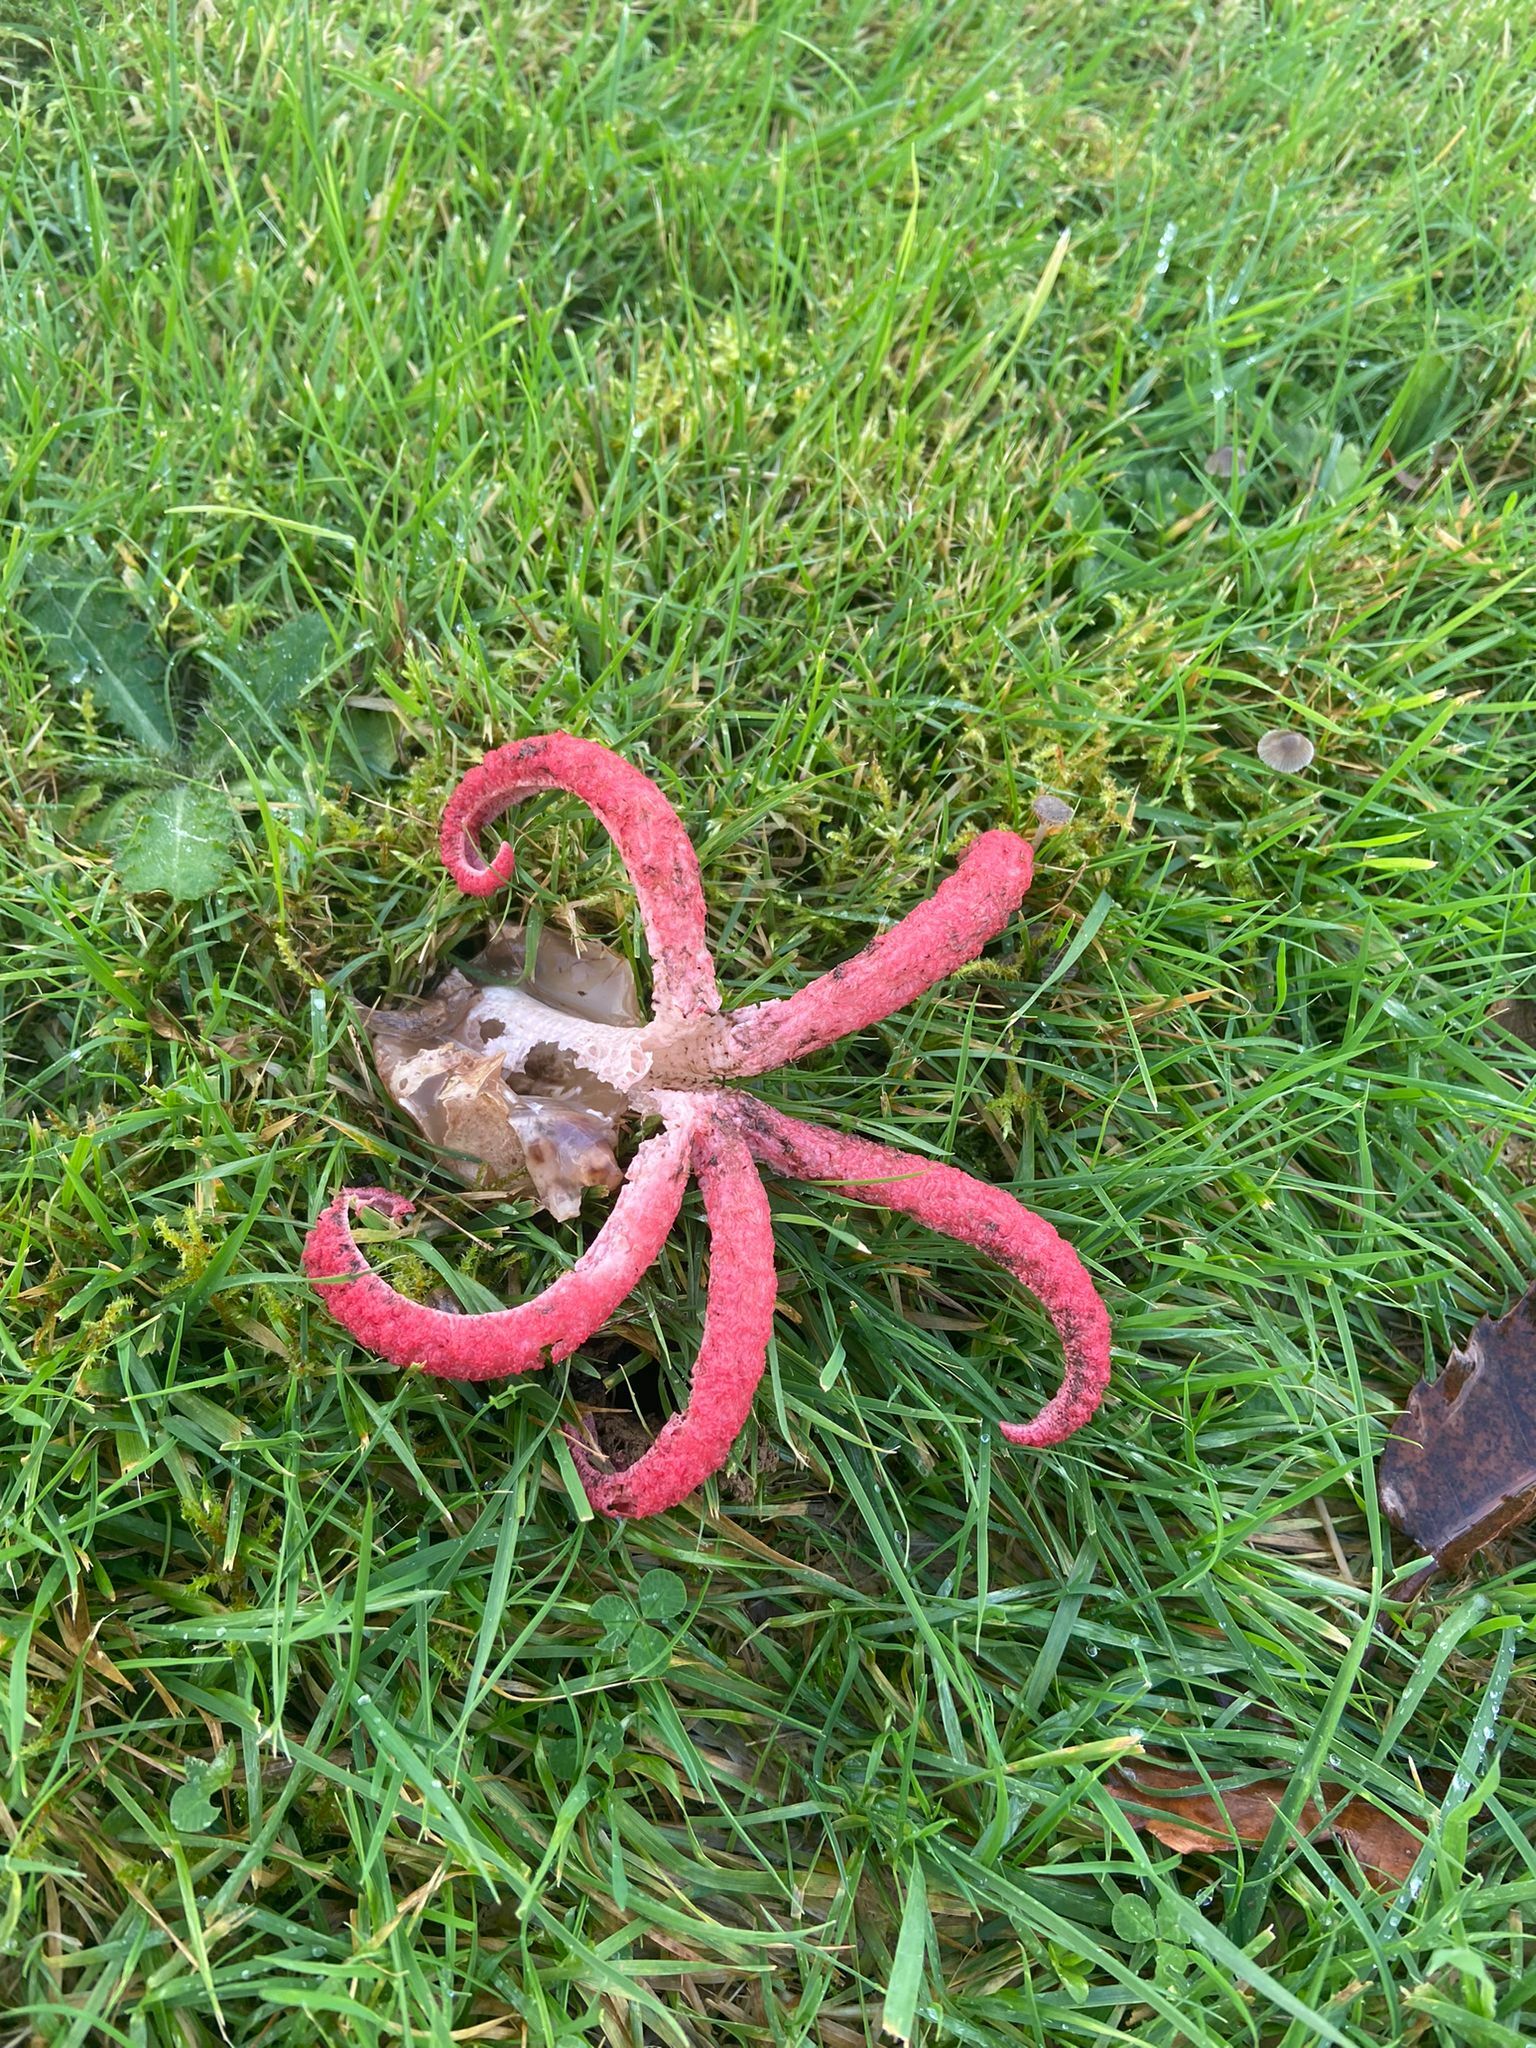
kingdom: Fungi
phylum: Basidiomycota
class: Agaricomycetes
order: Phallales
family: Phallaceae
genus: Clathrus
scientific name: Clathrus archeri
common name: Devil's fingers
